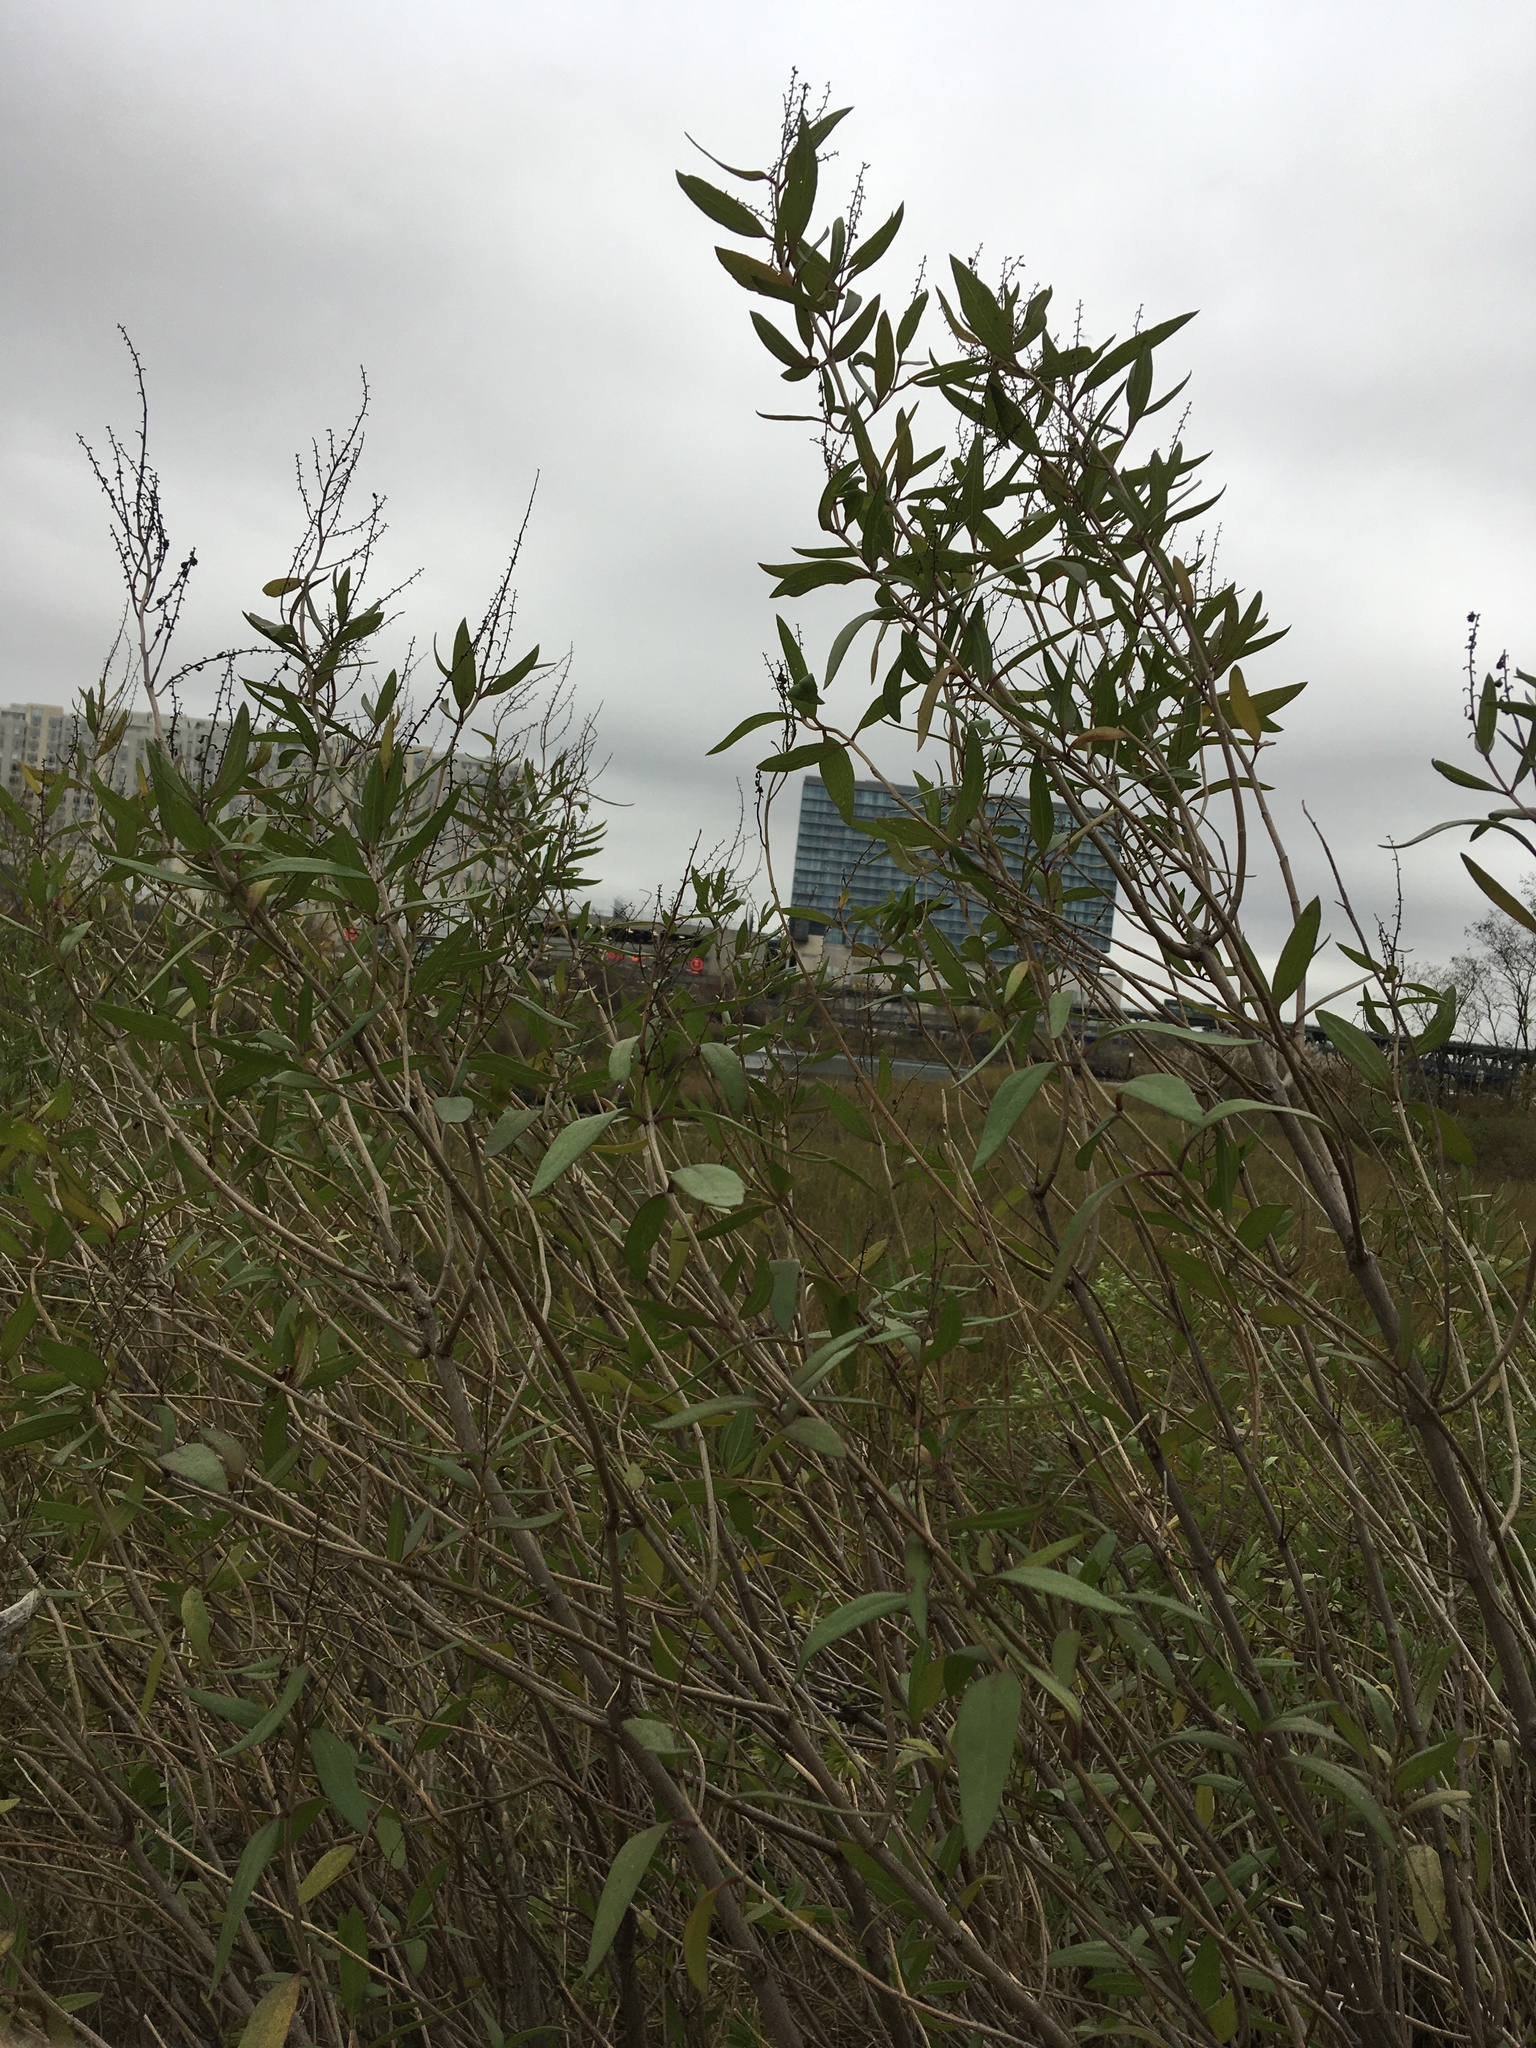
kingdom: Plantae
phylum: Tracheophyta
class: Magnoliopsida
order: Asterales
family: Asteraceae
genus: Iva
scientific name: Iva frutescens
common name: Big-leaved marsh-elder
